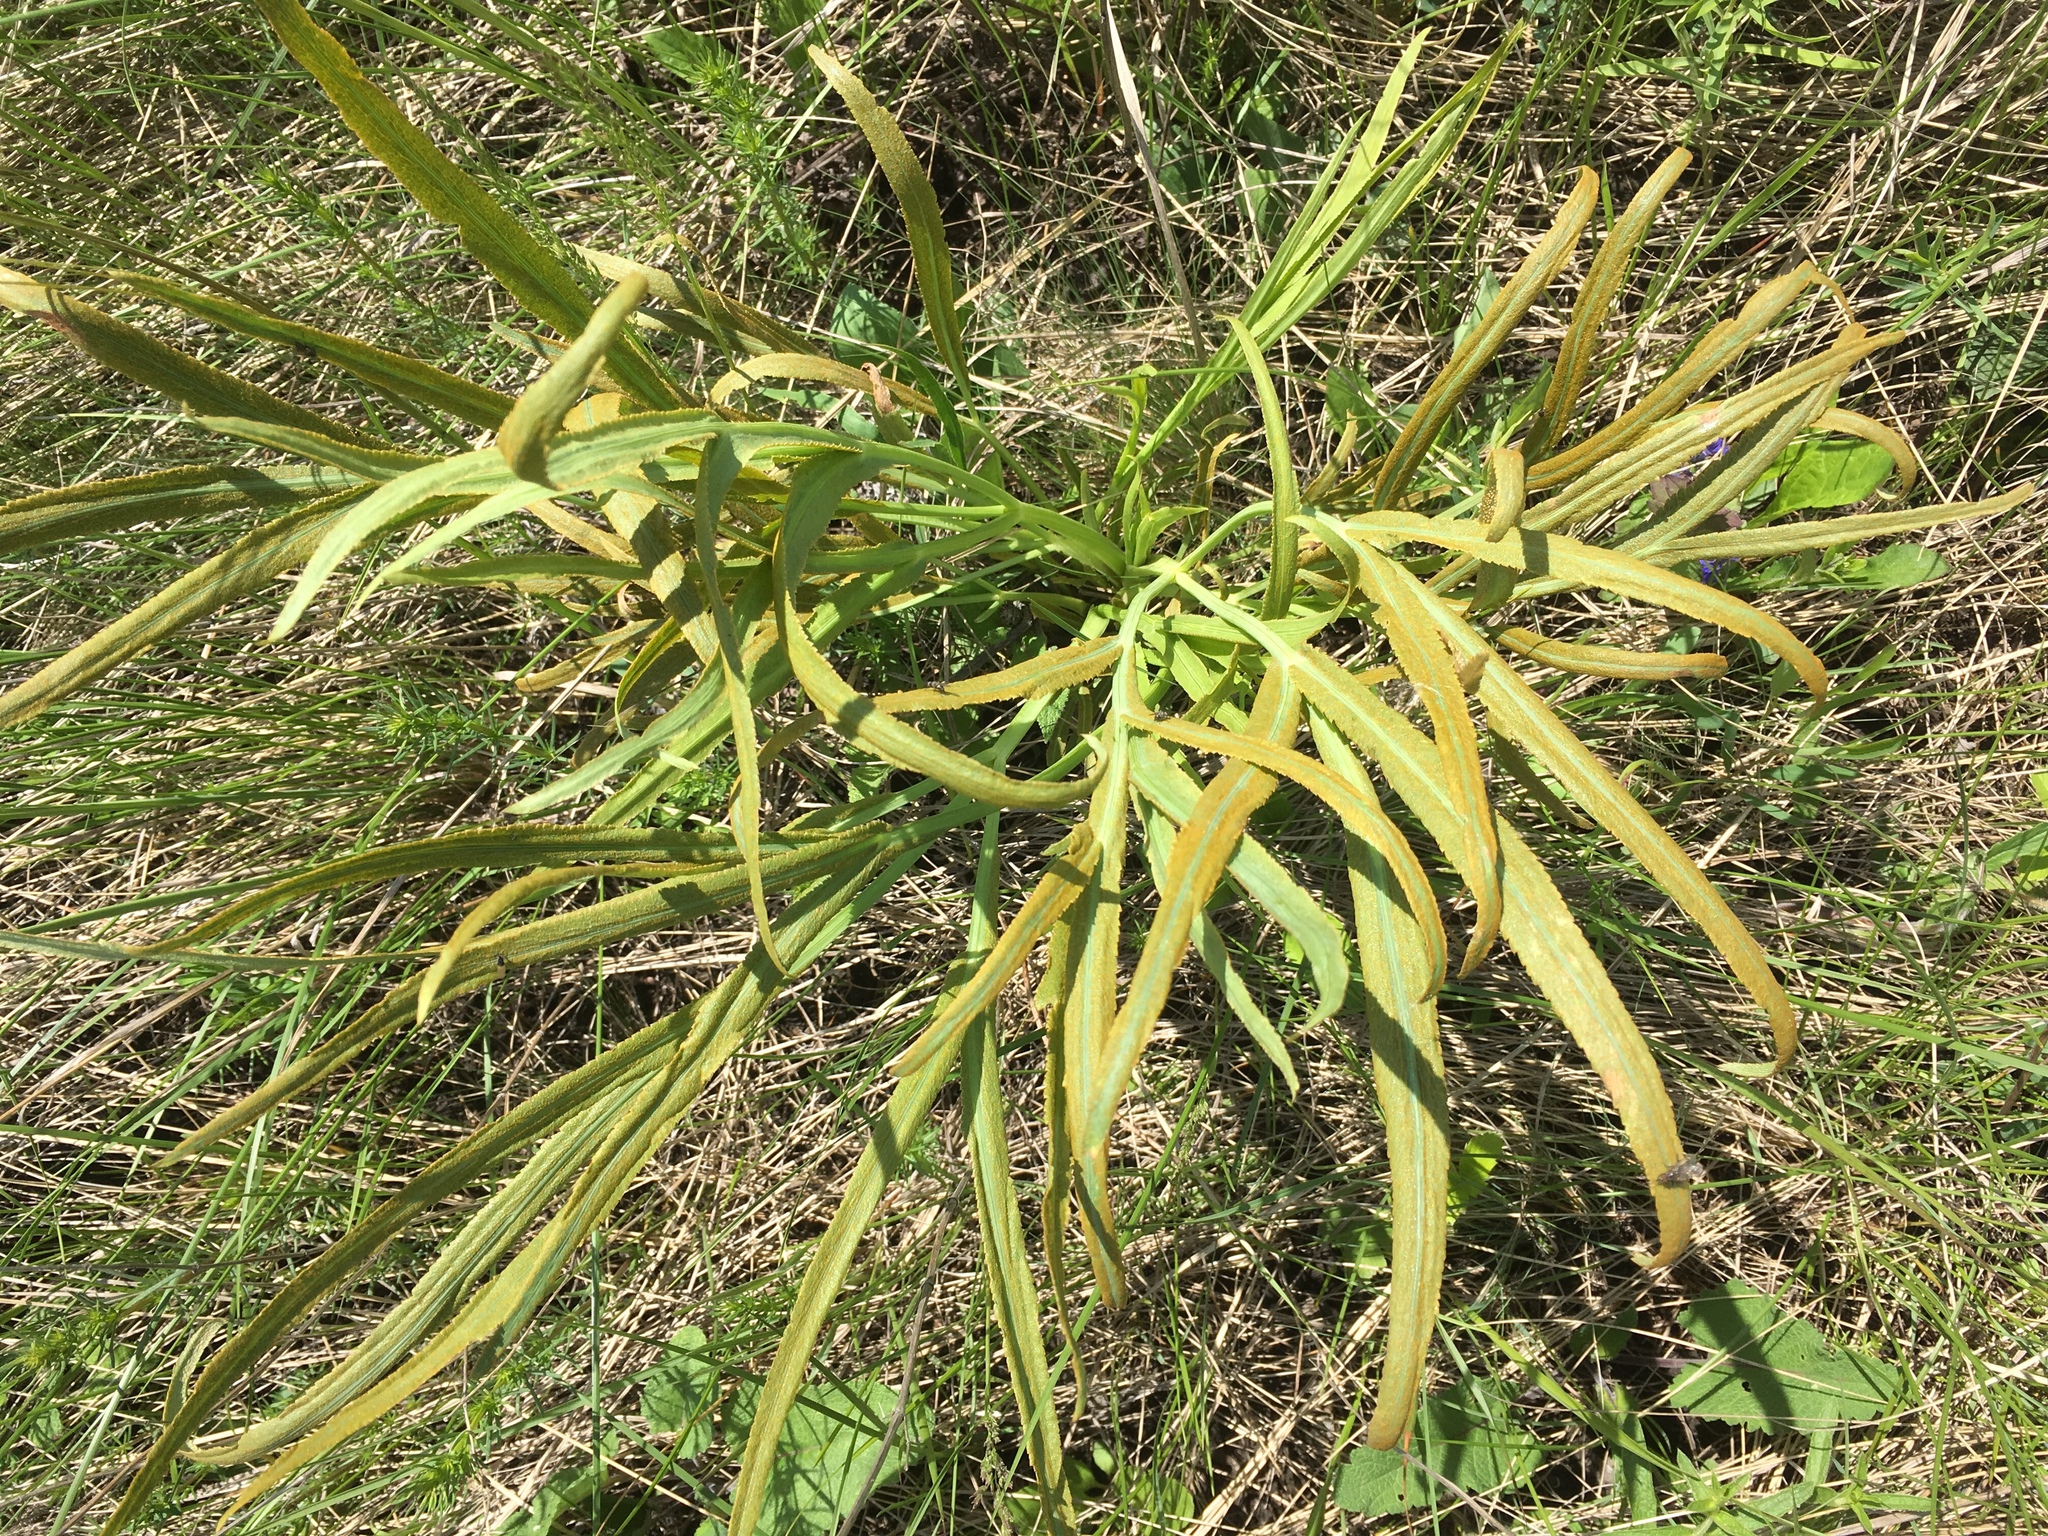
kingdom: Plantae
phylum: Tracheophyta
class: Magnoliopsida
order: Apiales
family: Apiaceae
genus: Falcaria
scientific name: Falcaria vulgaris
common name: Longleaf
